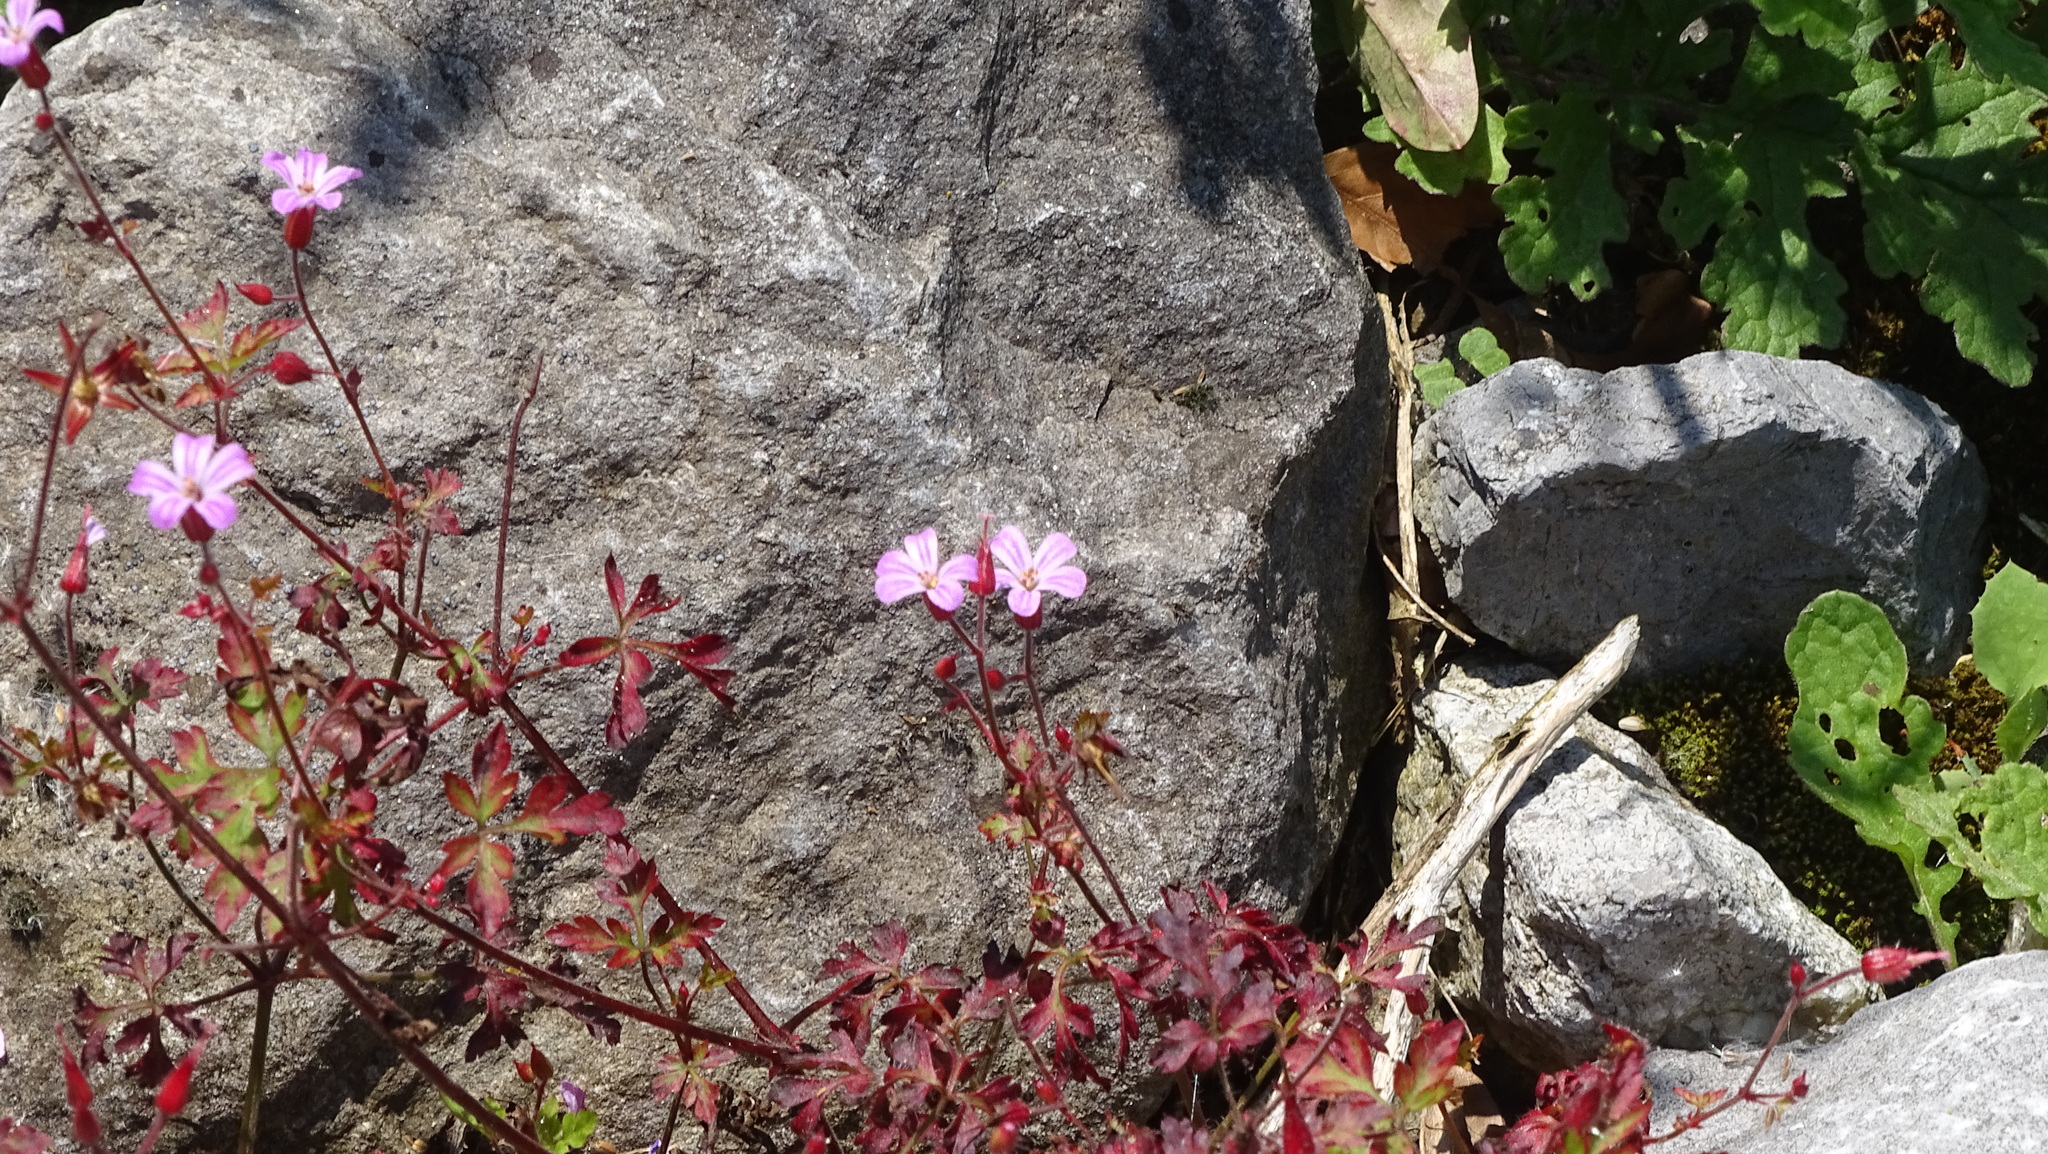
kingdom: Plantae
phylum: Tracheophyta
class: Magnoliopsida
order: Geraniales
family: Geraniaceae
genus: Geranium
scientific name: Geranium robertianum
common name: Herb-robert
